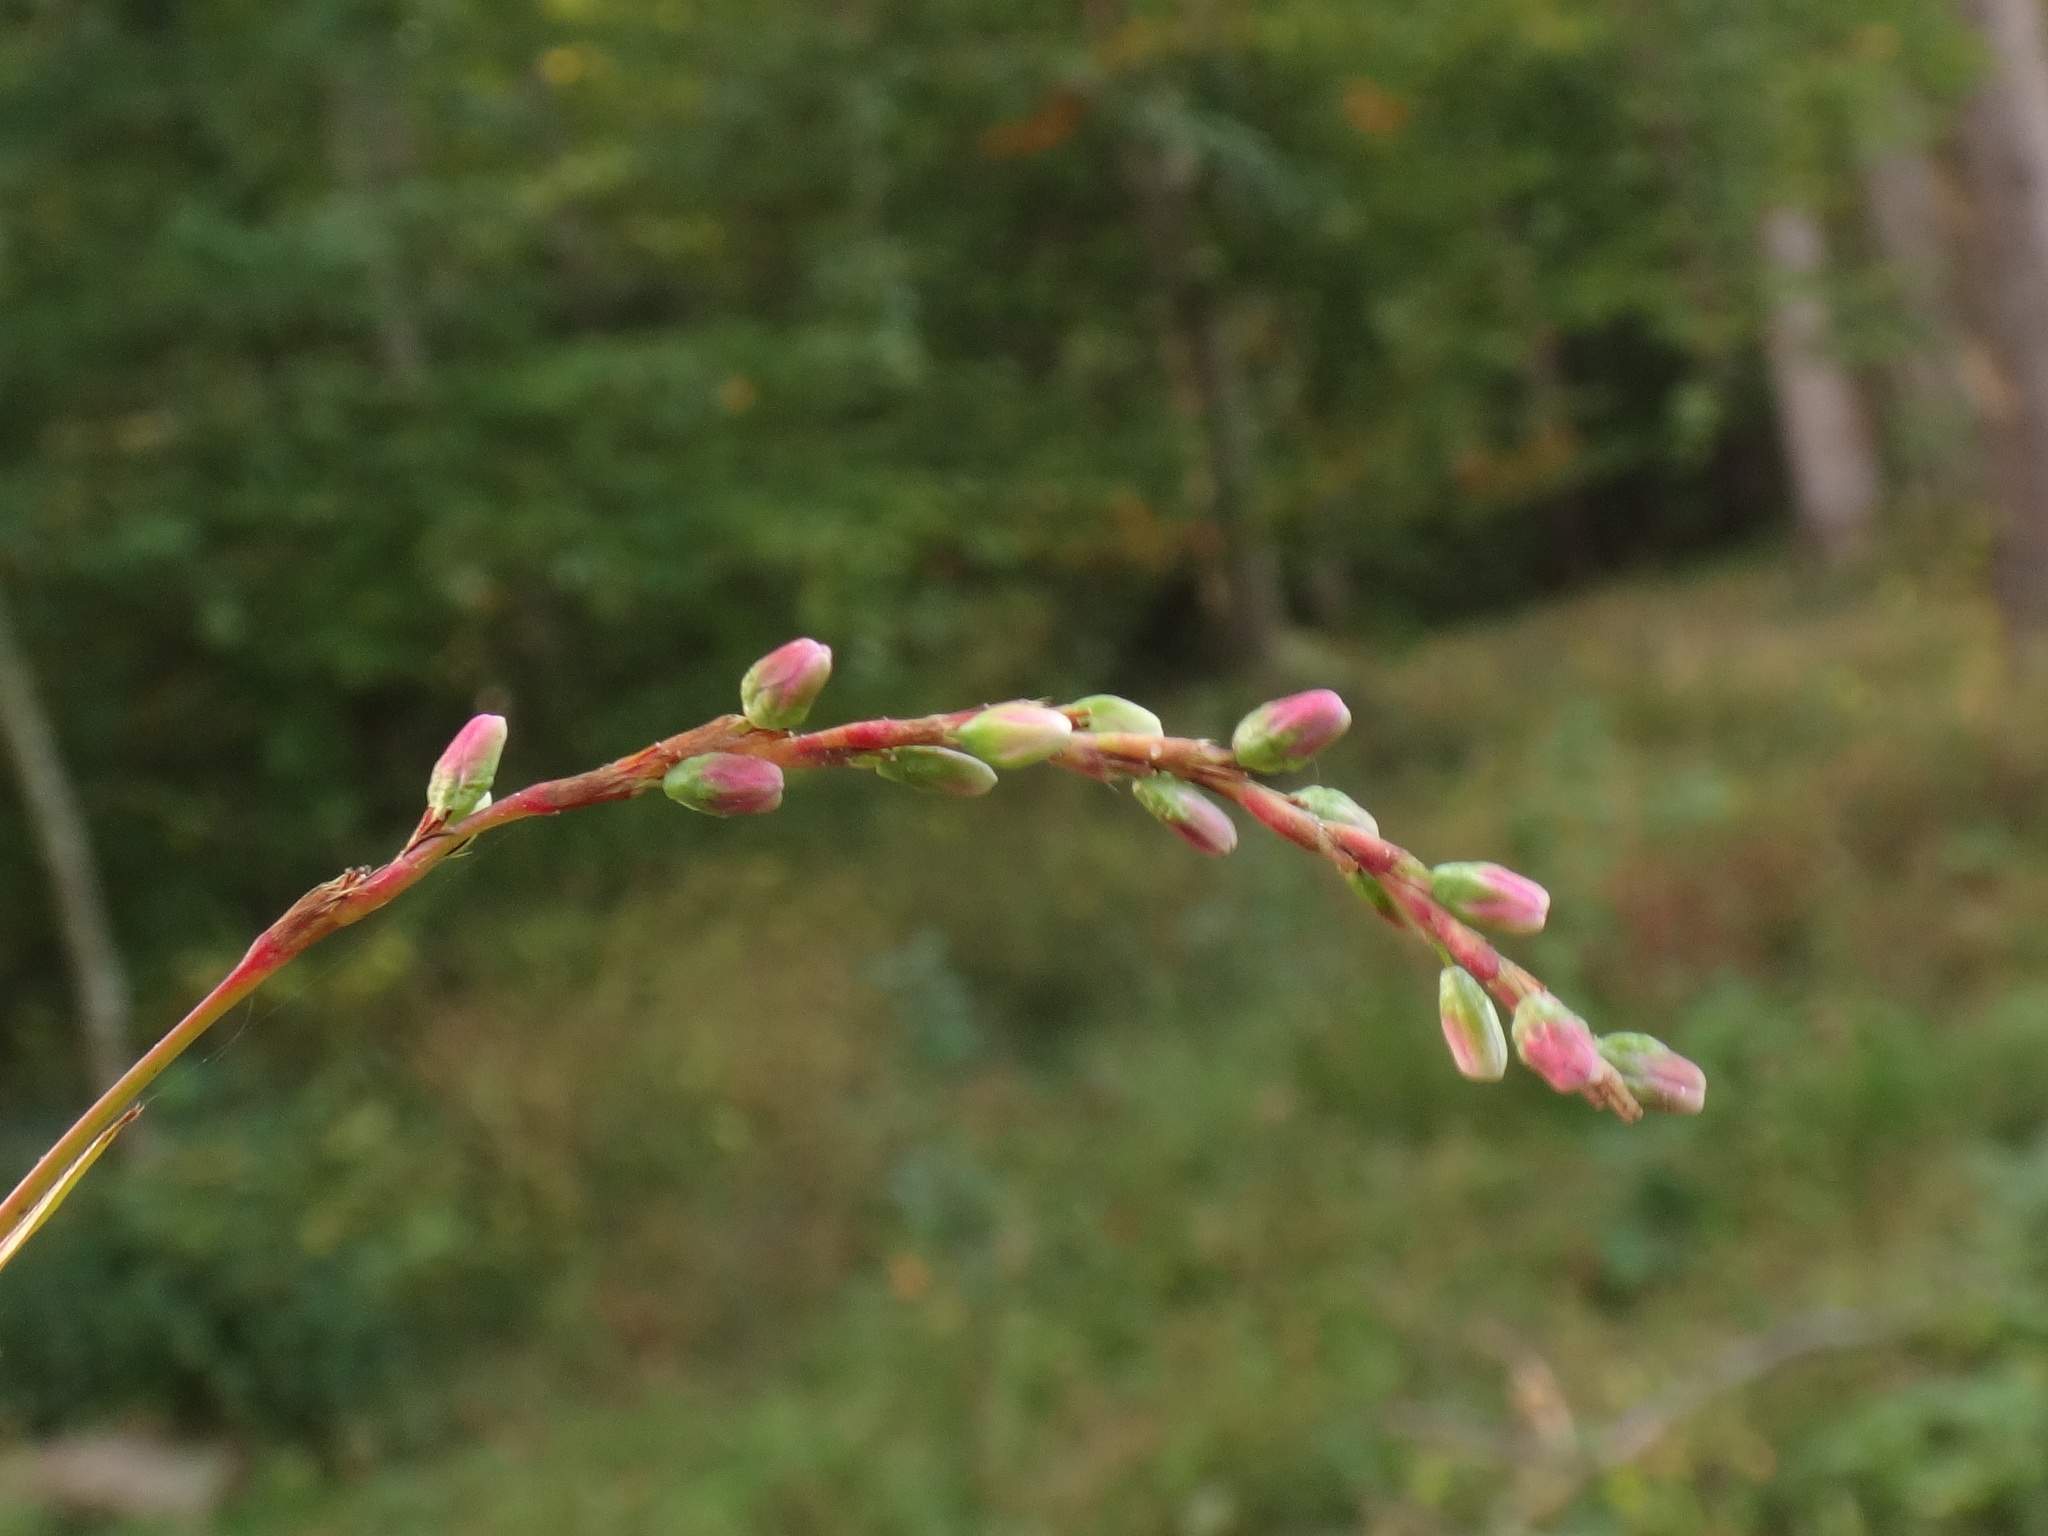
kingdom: Plantae
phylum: Tracheophyta
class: Magnoliopsida
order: Caryophyllales
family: Polygonaceae
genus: Persicaria
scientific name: Persicaria mitis
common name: Tasteless water-pepper
